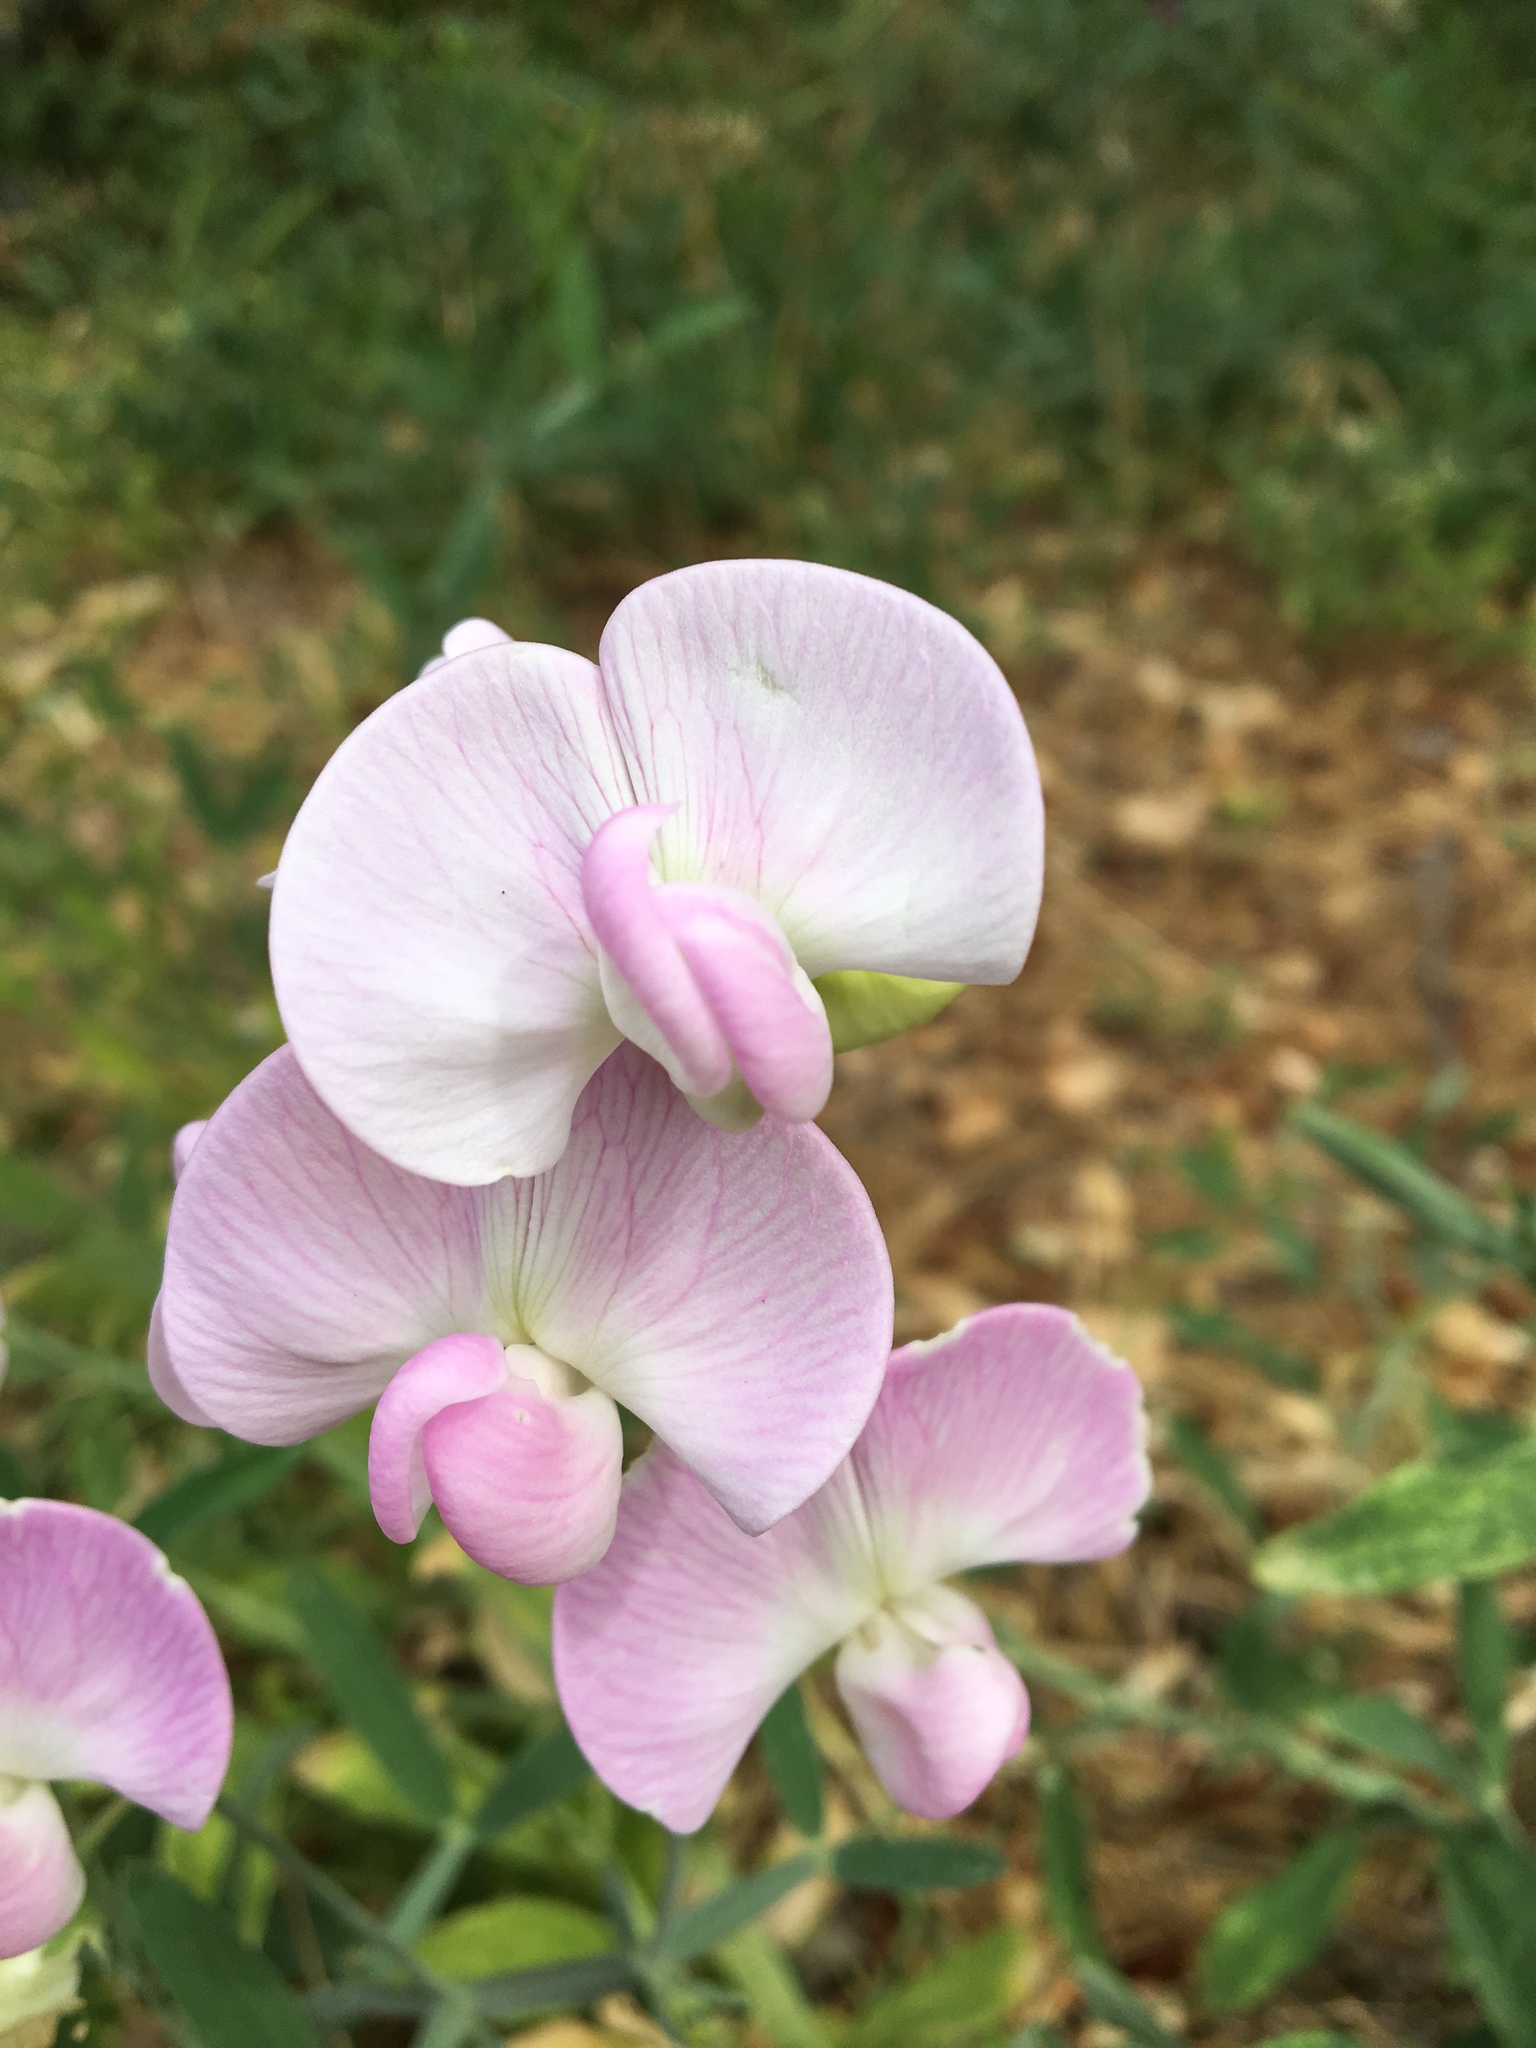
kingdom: Plantae
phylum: Tracheophyta
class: Magnoliopsida
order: Fabales
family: Fabaceae
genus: Lathyrus
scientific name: Lathyrus latifolius
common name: Perennial pea
